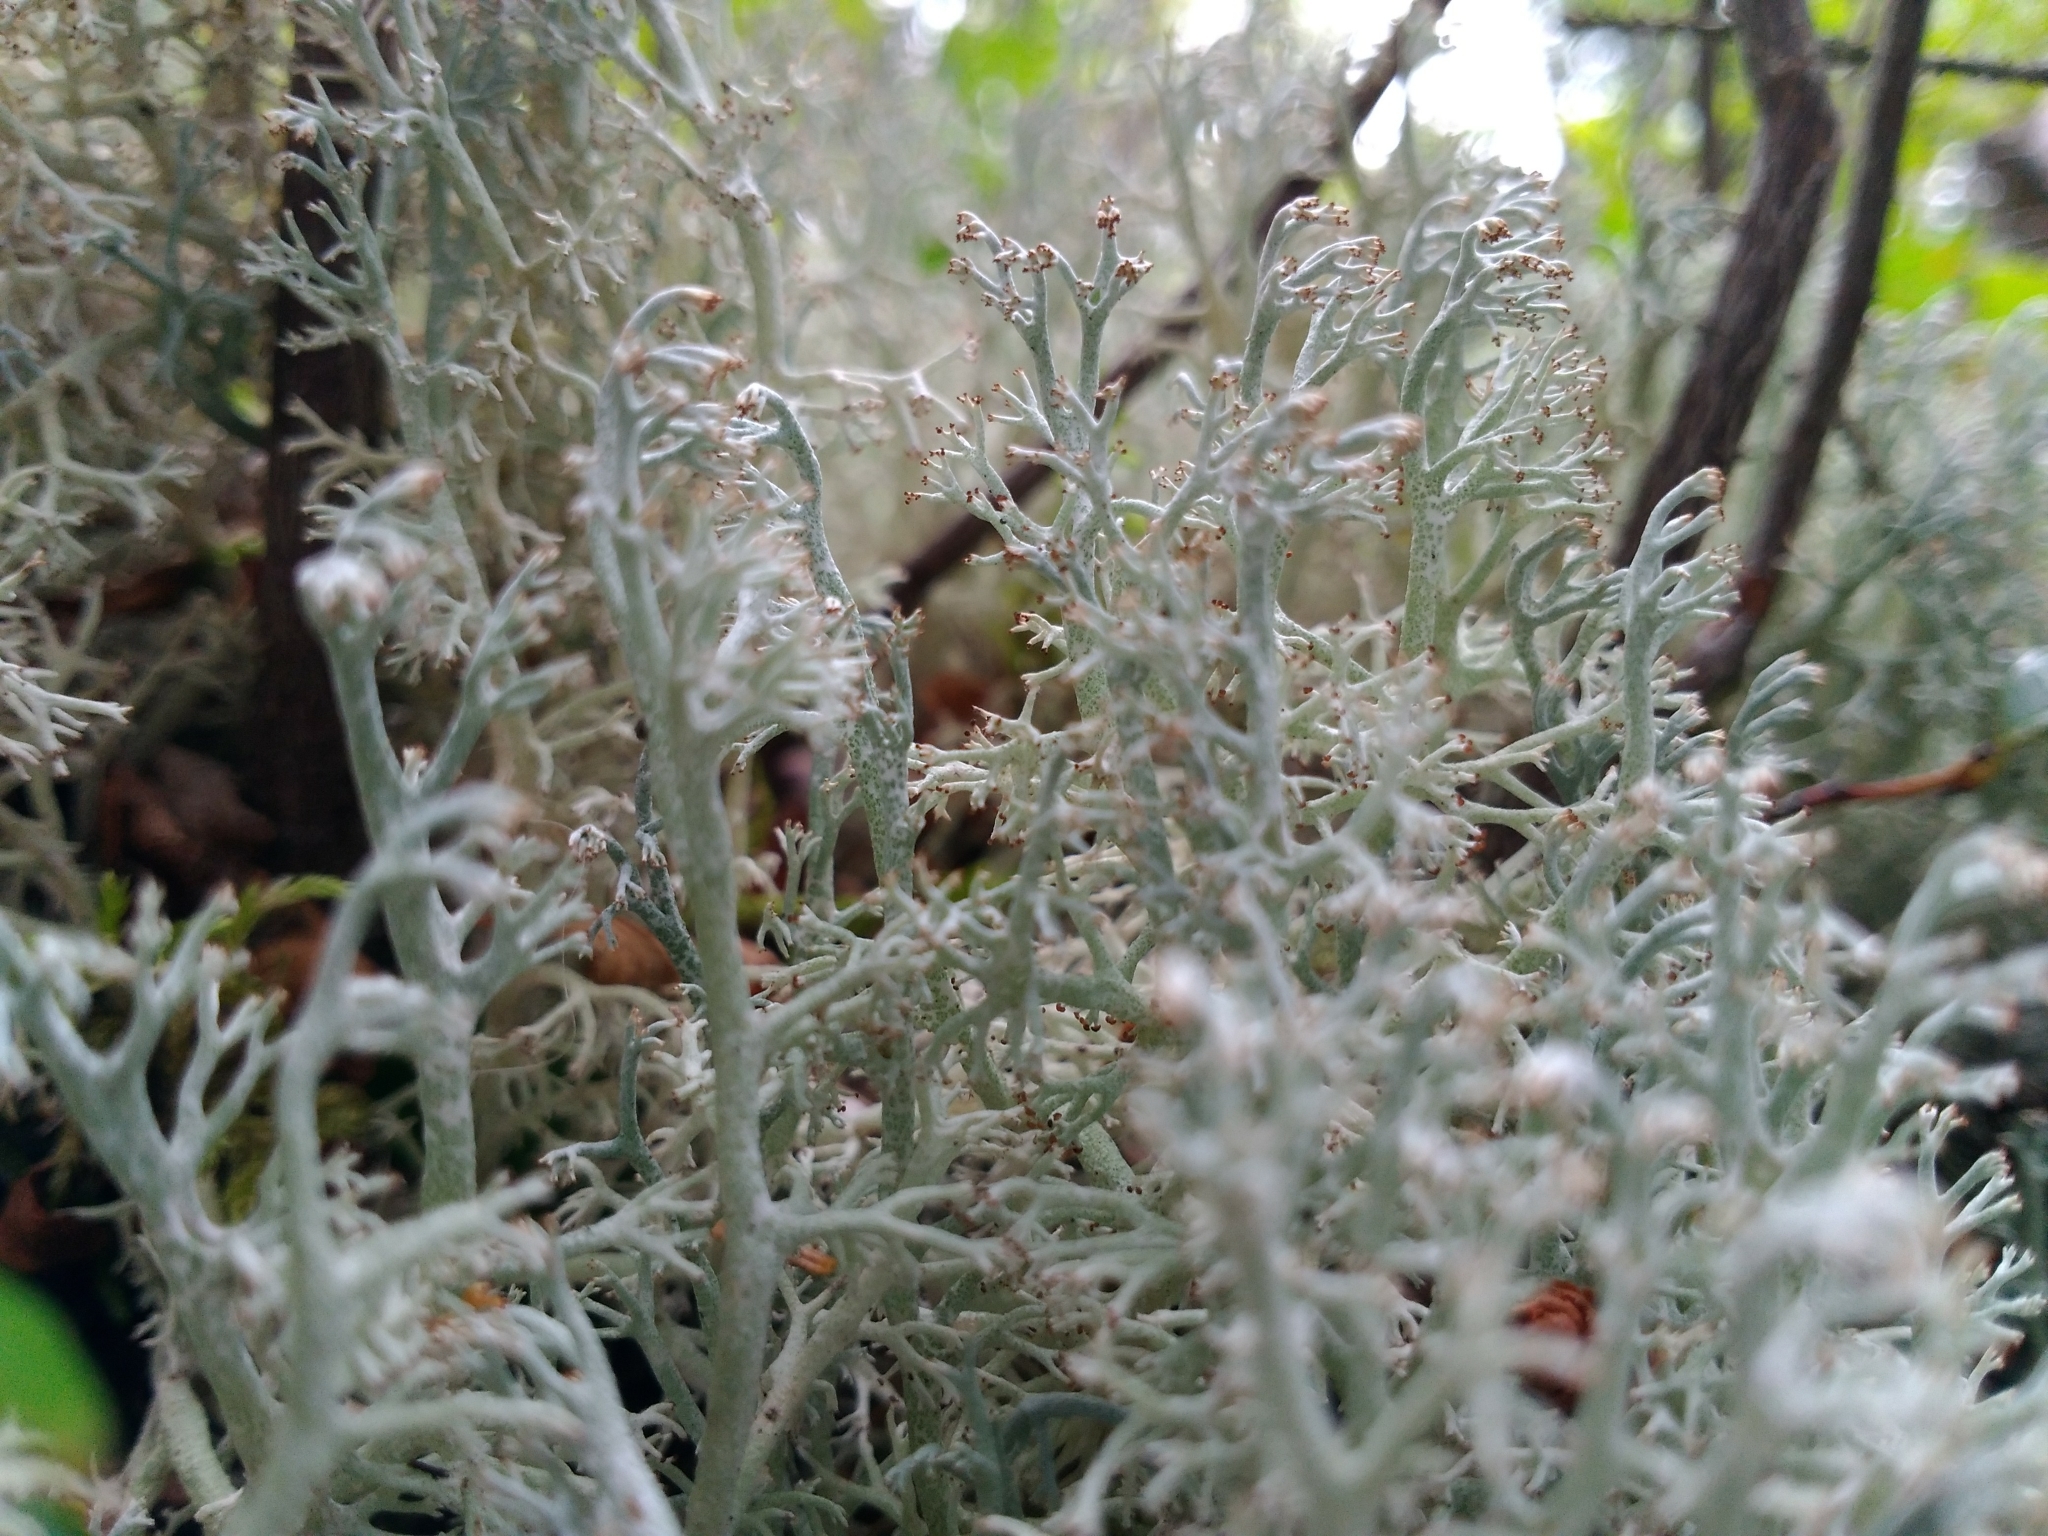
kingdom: Fungi
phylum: Ascomycota
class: Lecanoromycetes
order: Lecanorales
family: Cladoniaceae
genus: Cladonia
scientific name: Cladonia rangiferina
